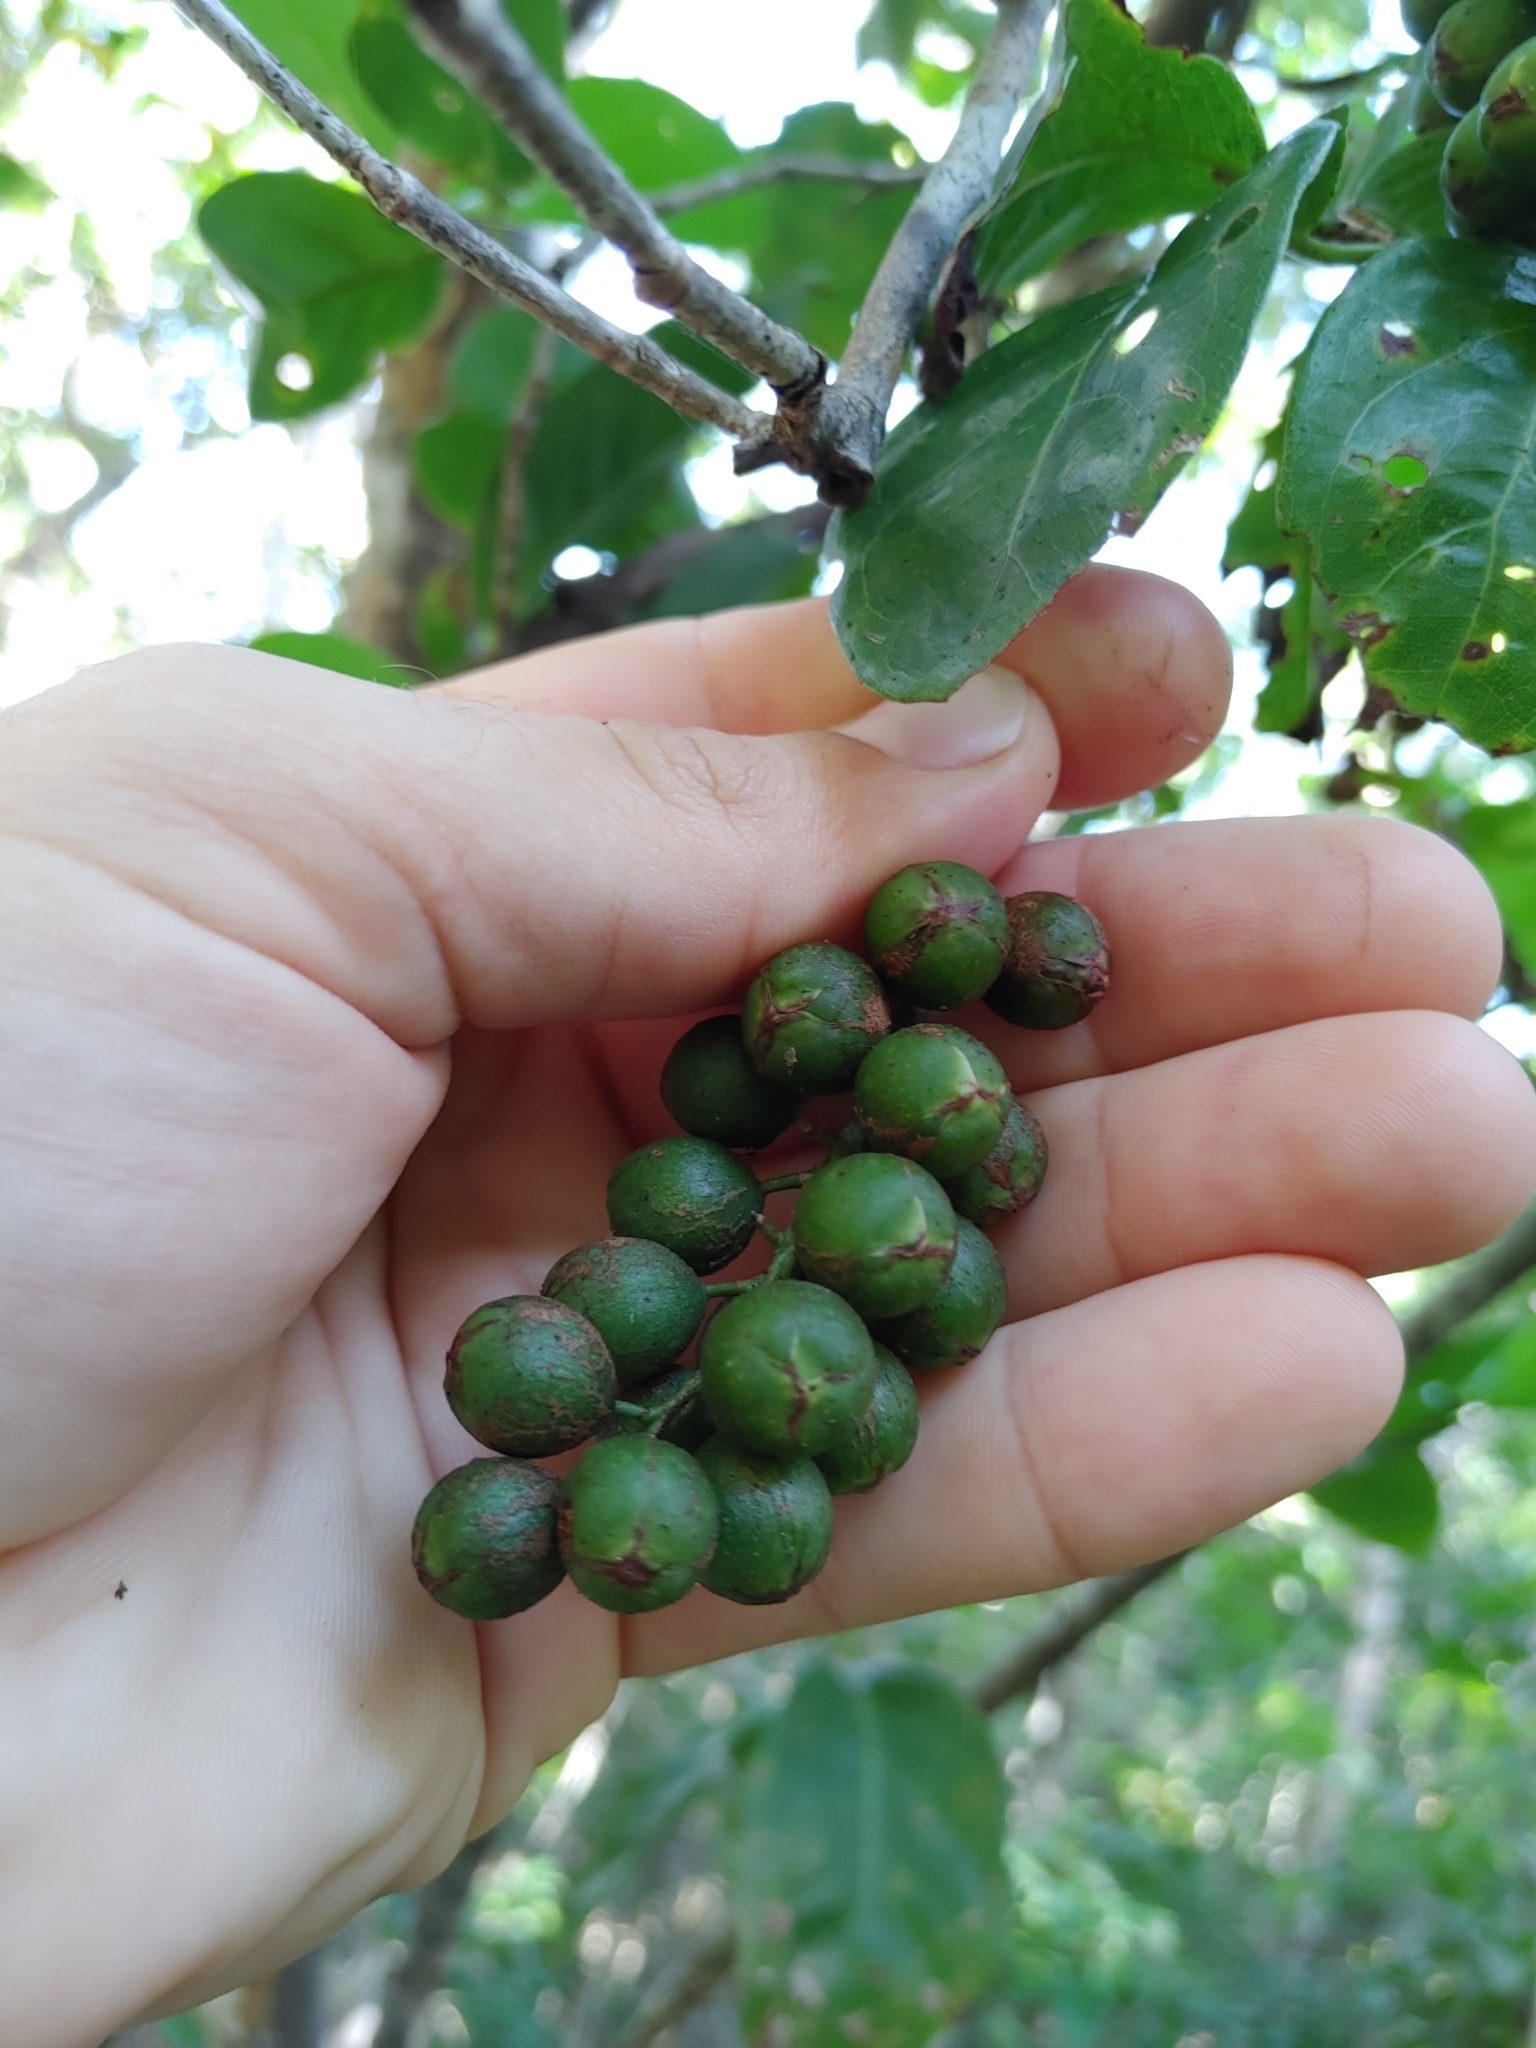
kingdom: Plantae
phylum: Tracheophyta
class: Magnoliopsida
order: Caryophyllales
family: Polygonaceae
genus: Coccoloba
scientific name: Coccoloba diversifolia
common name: Pigeon-plum
